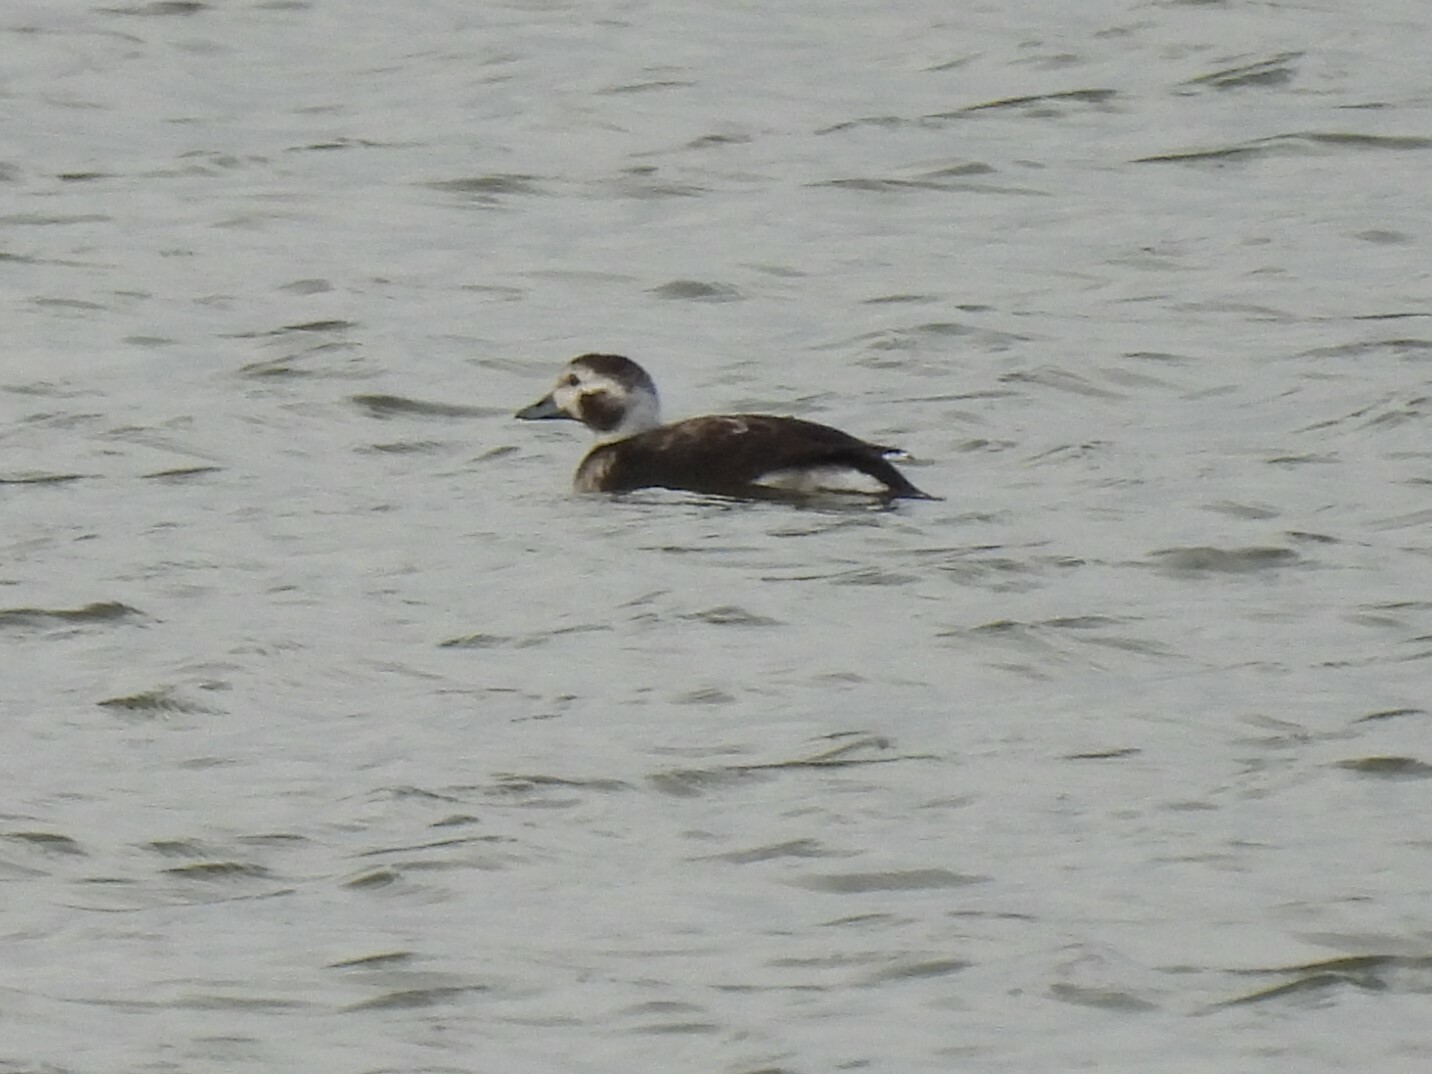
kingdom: Animalia
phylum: Chordata
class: Aves
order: Anseriformes
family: Anatidae
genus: Clangula
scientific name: Clangula hyemalis
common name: Long-tailed duck
